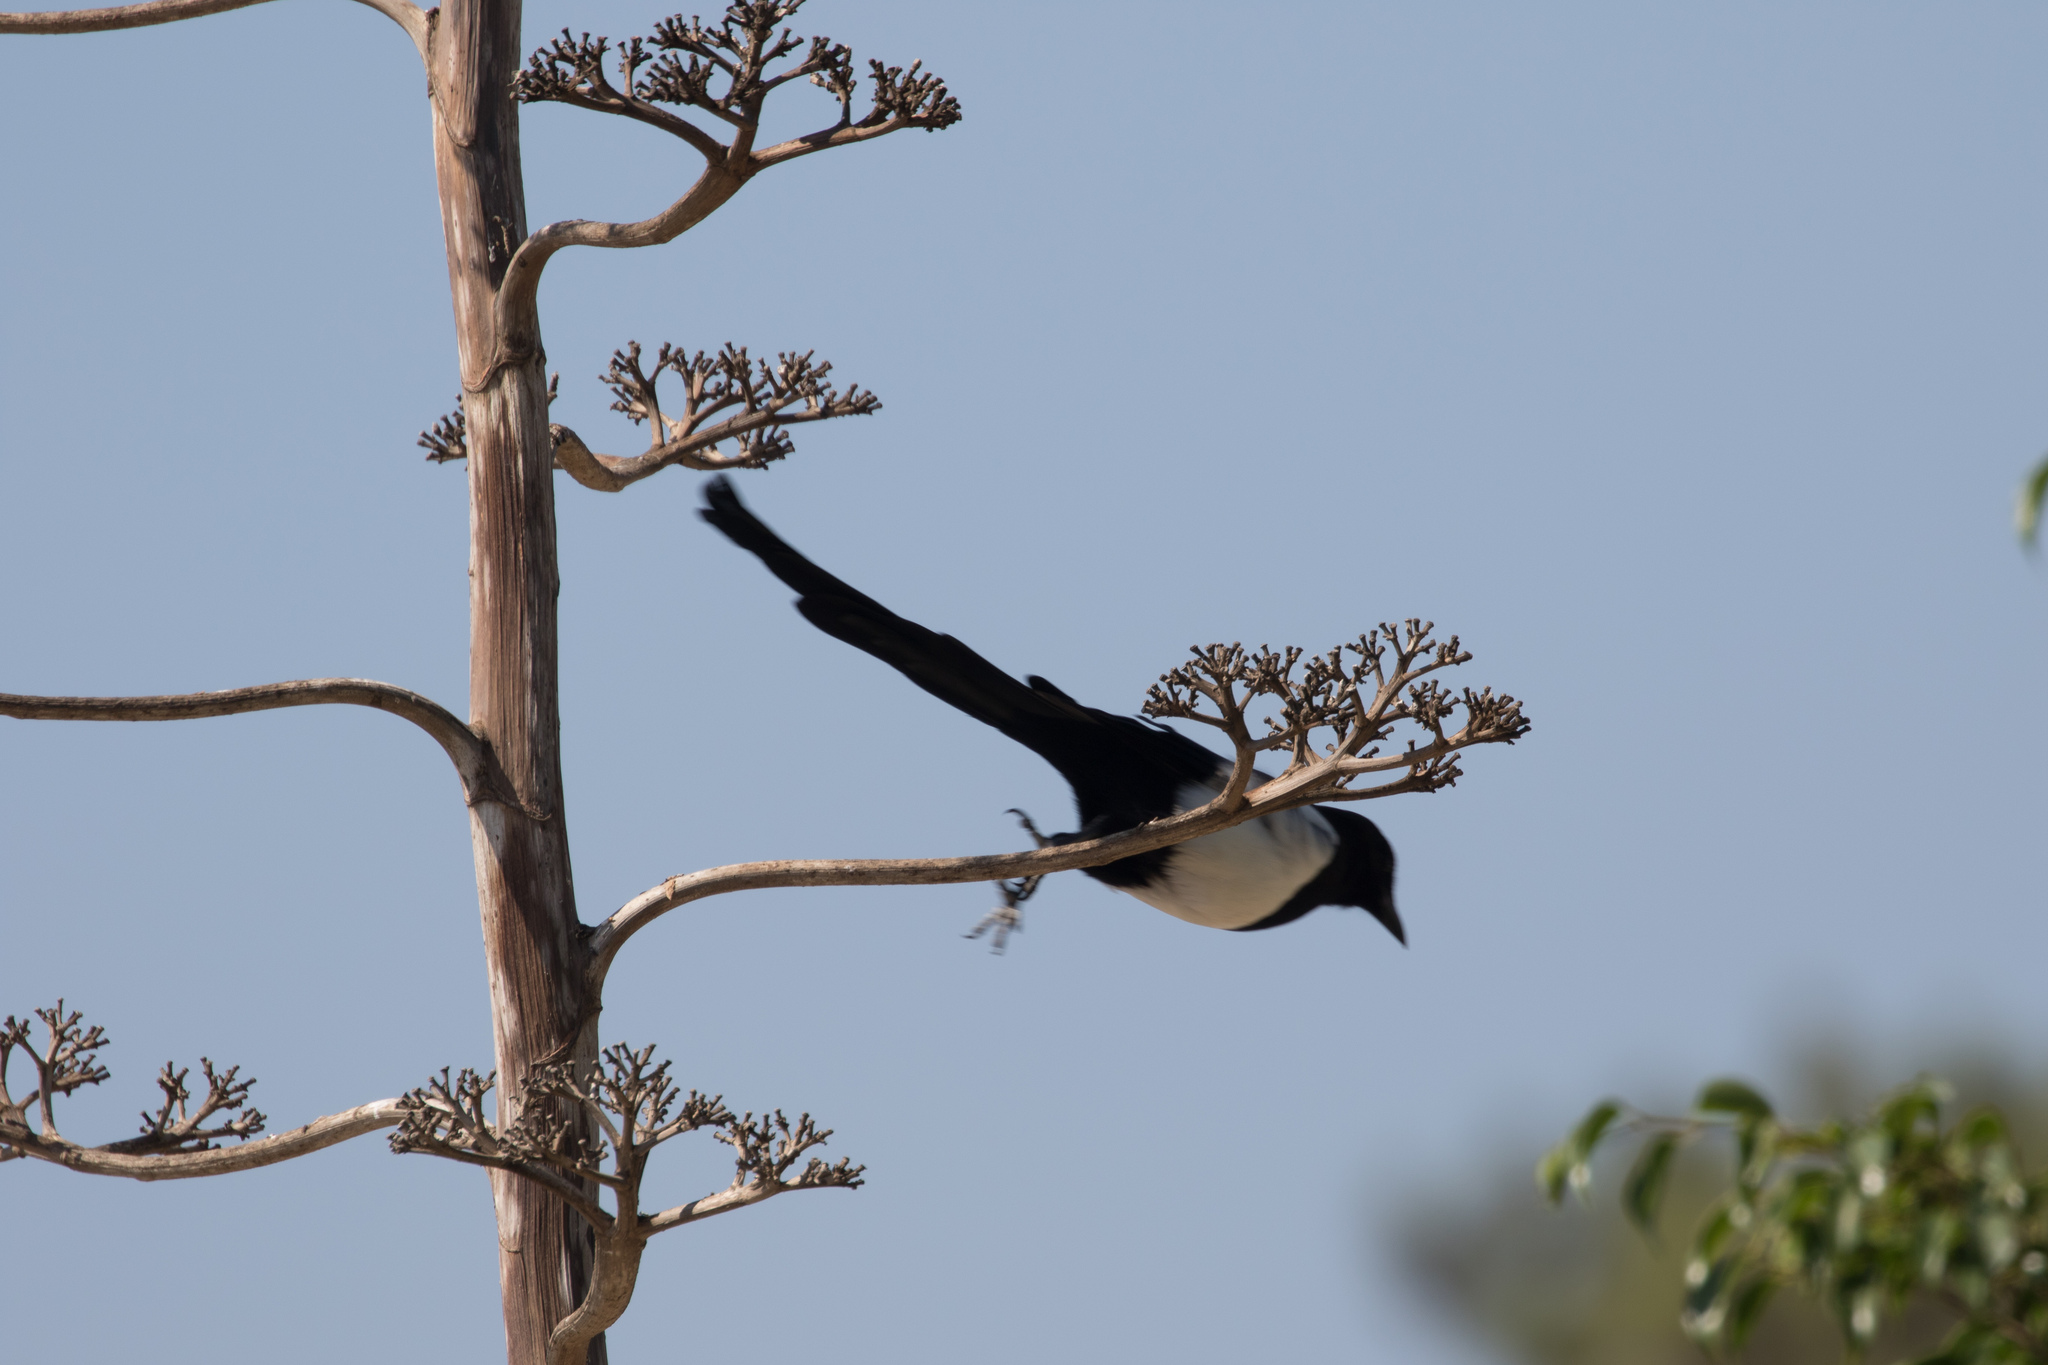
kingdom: Animalia
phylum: Chordata
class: Aves
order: Passeriformes
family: Corvidae
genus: Pica
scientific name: Pica pica
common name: Eurasian magpie
